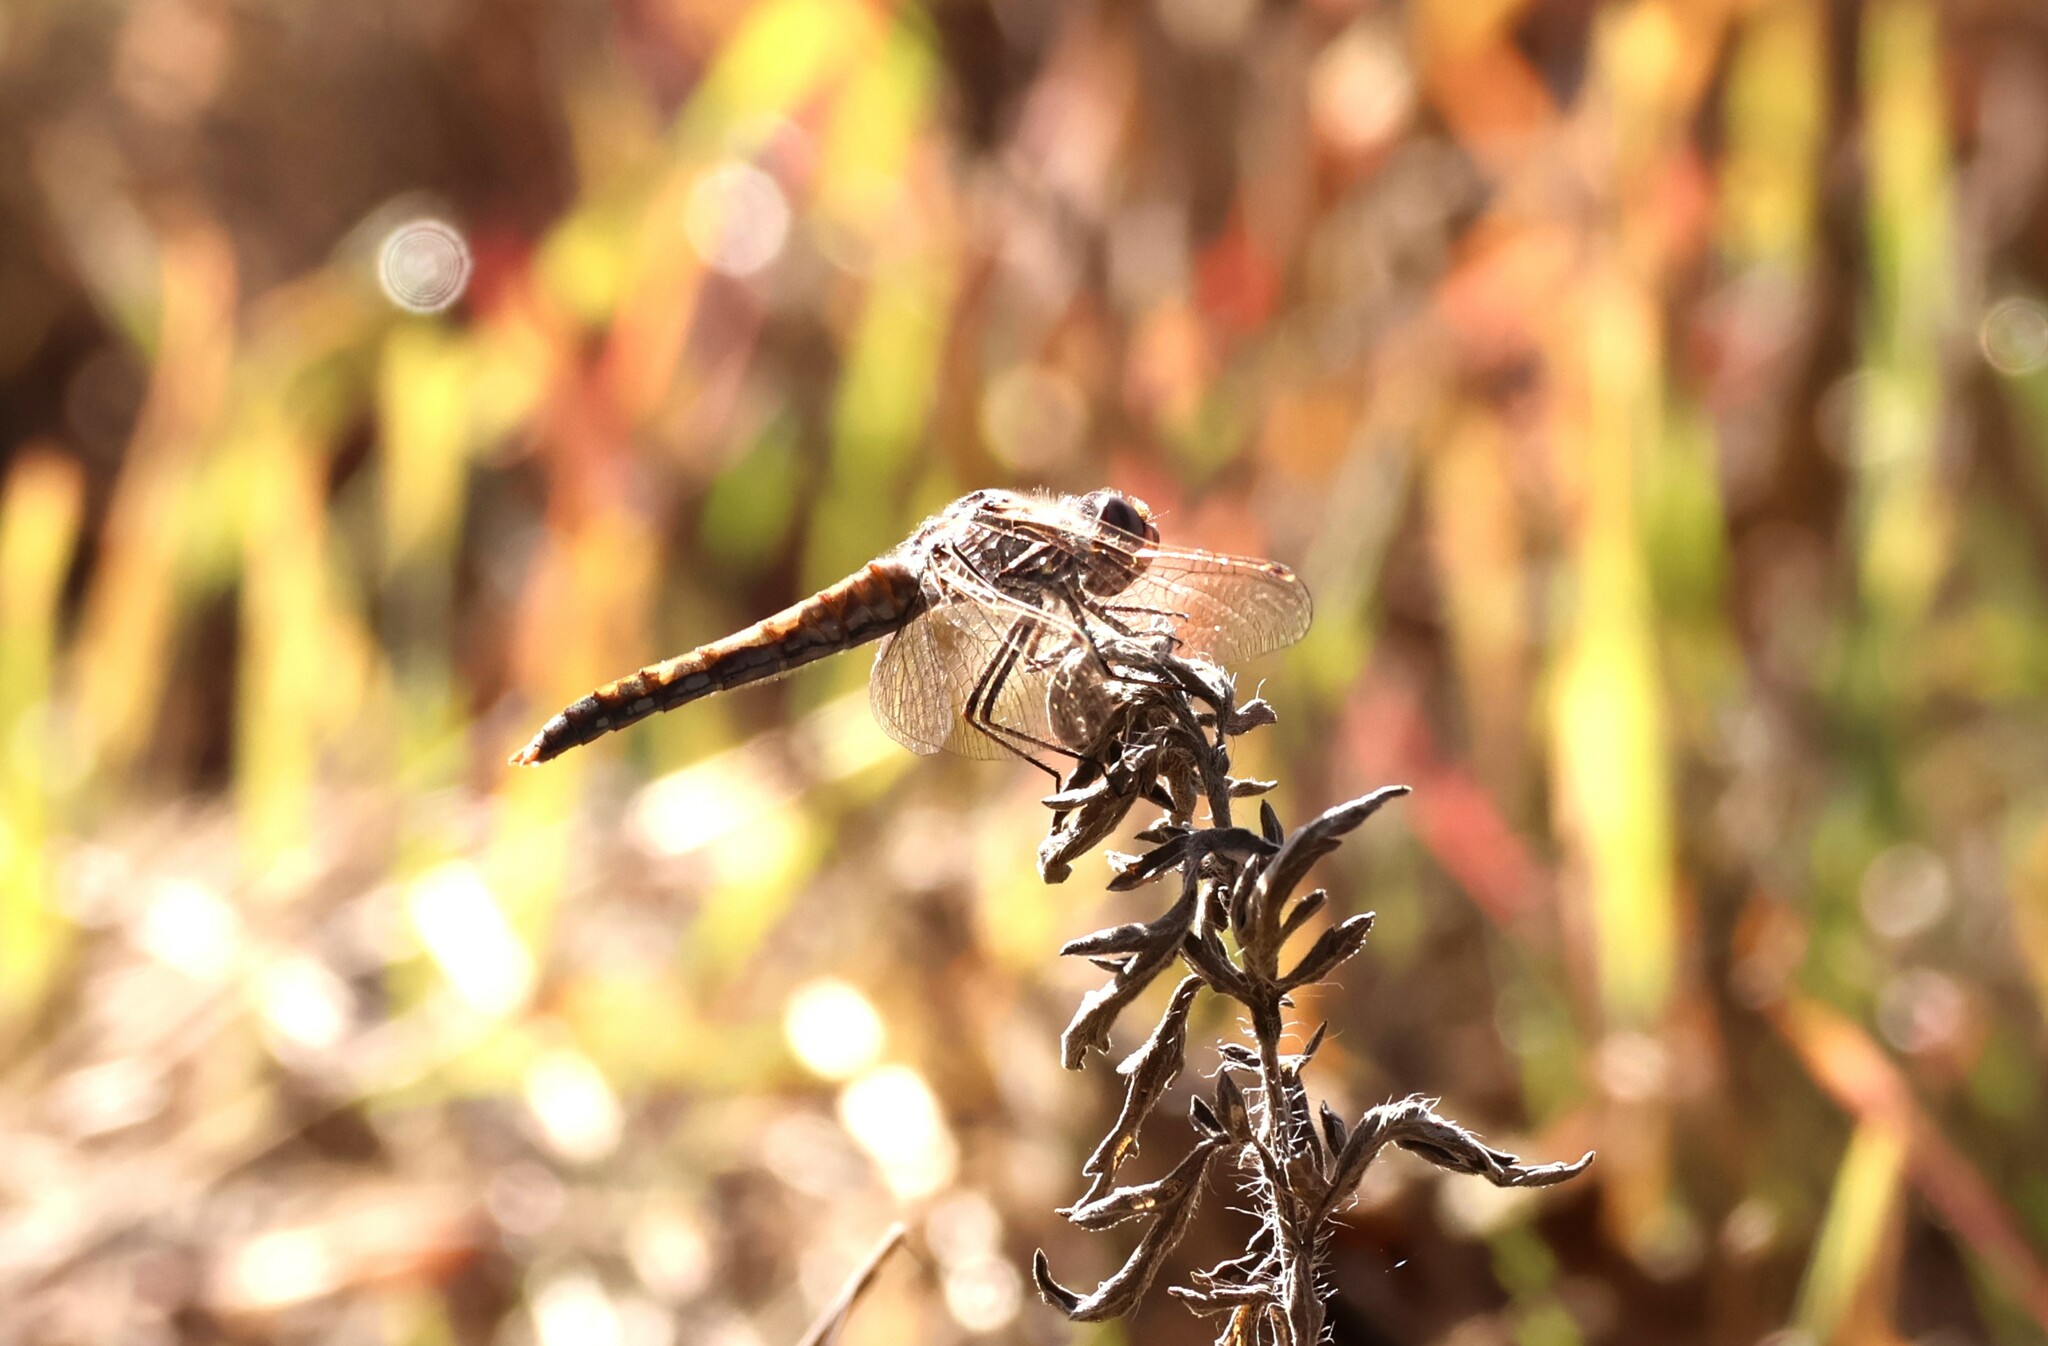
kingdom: Animalia
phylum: Arthropoda
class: Insecta
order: Odonata
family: Libellulidae
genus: Sympetrum
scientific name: Sympetrum corruptum
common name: Variegated meadowhawk
